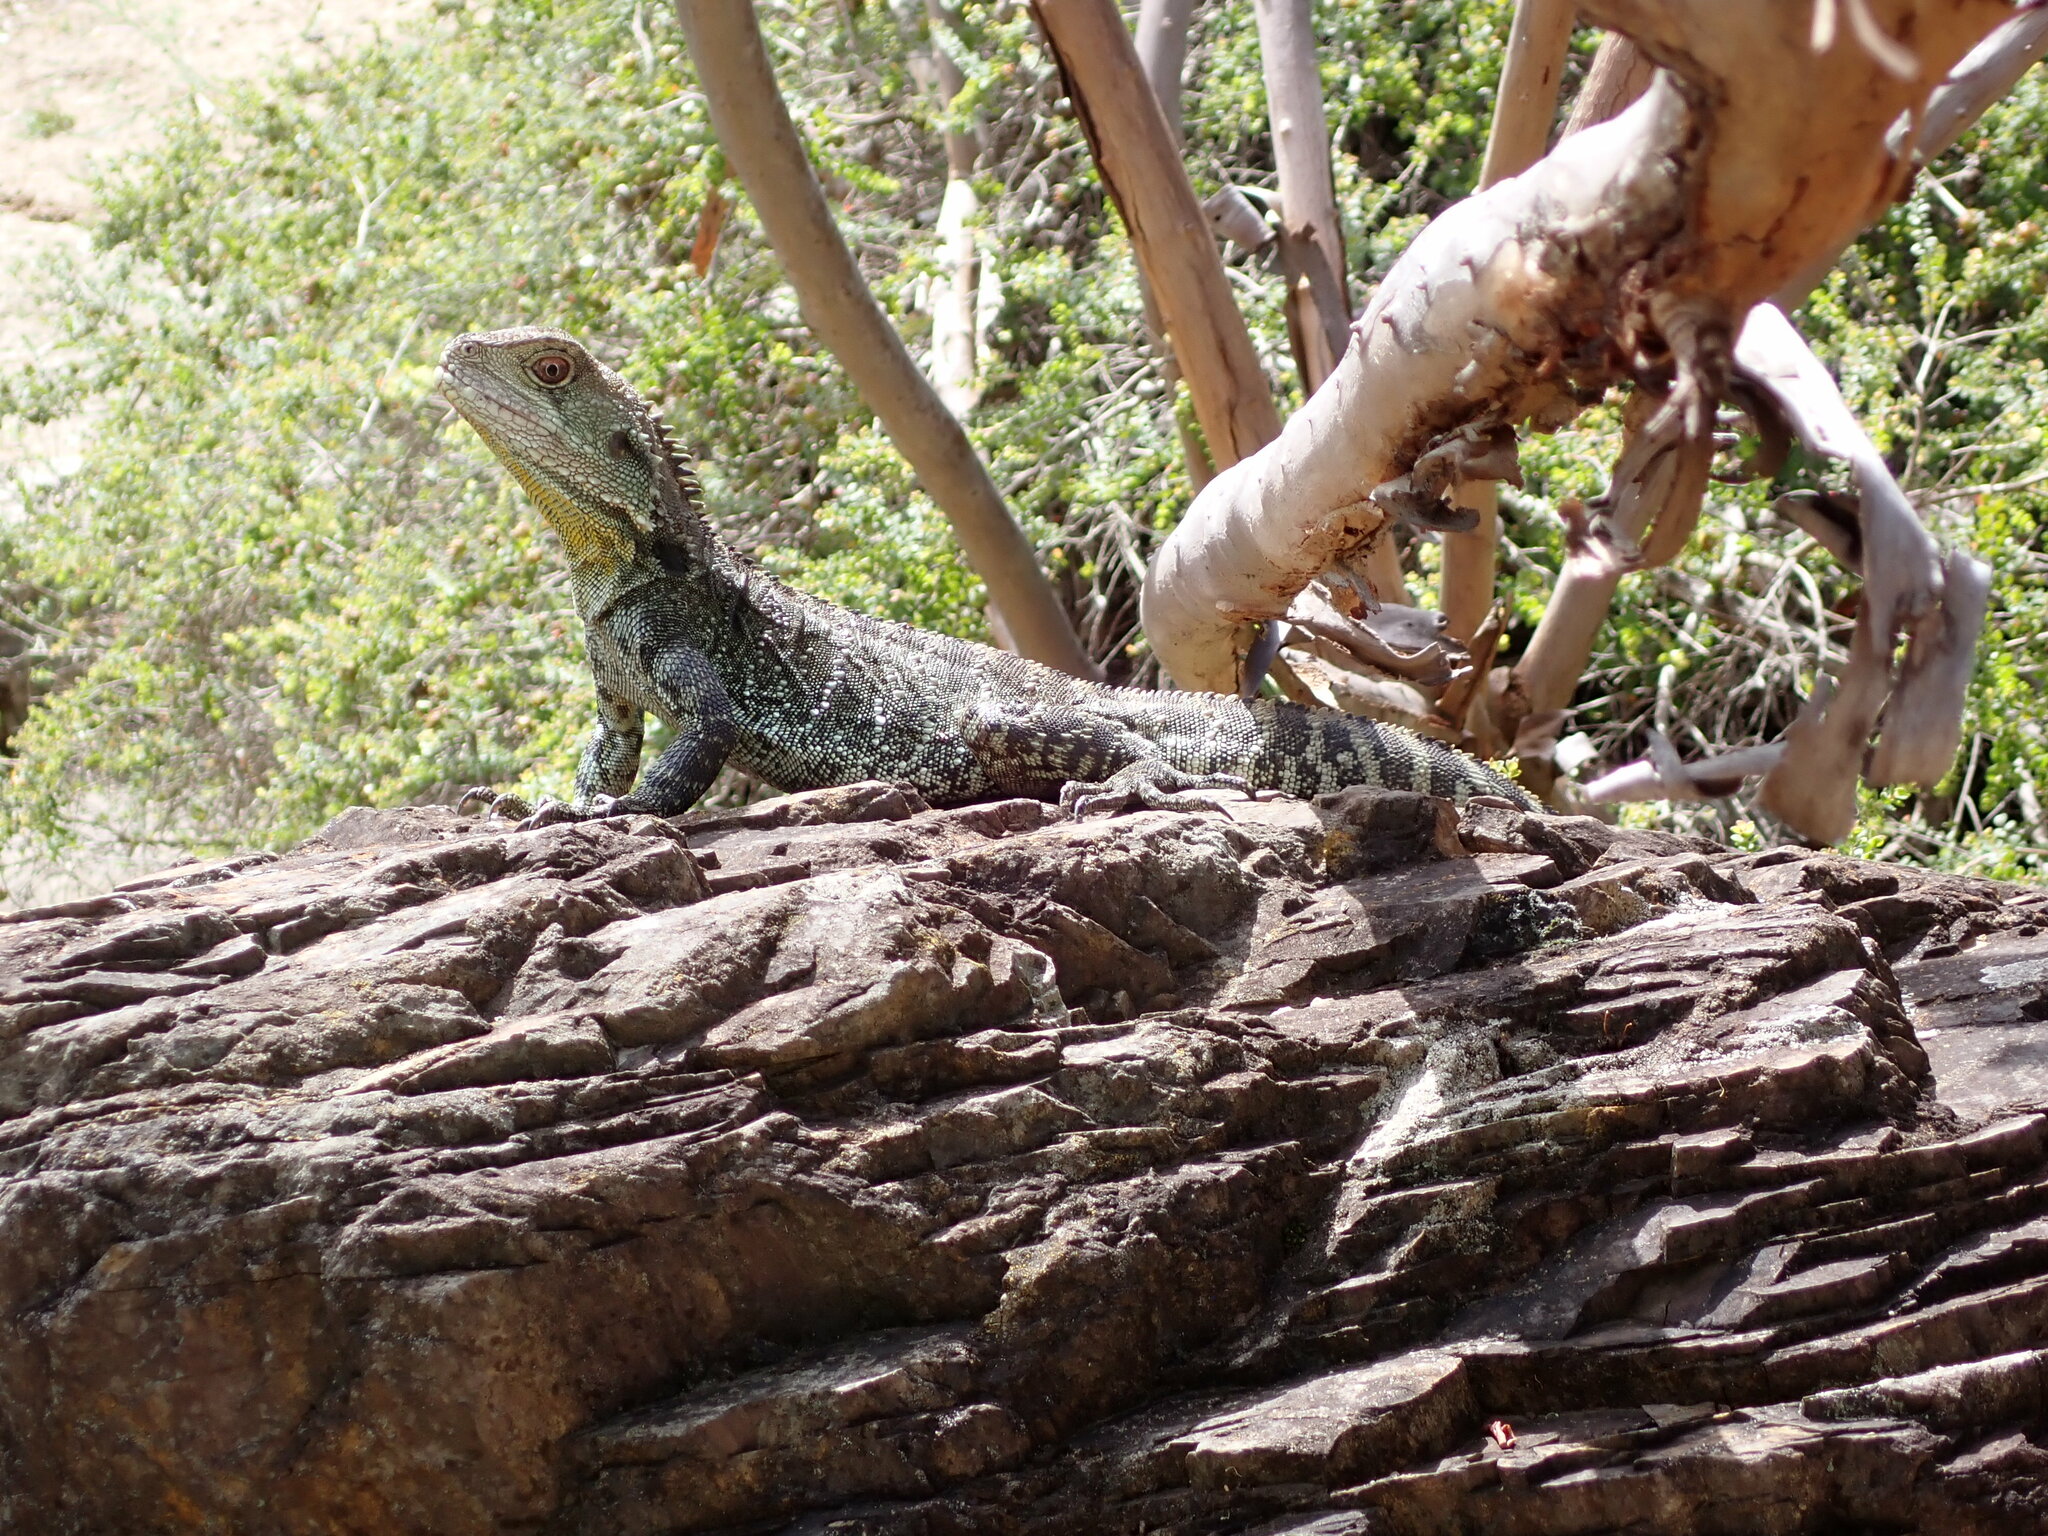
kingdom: Animalia
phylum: Chordata
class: Squamata
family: Agamidae
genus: Intellagama
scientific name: Intellagama lesueurii
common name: Eastern water dragon
